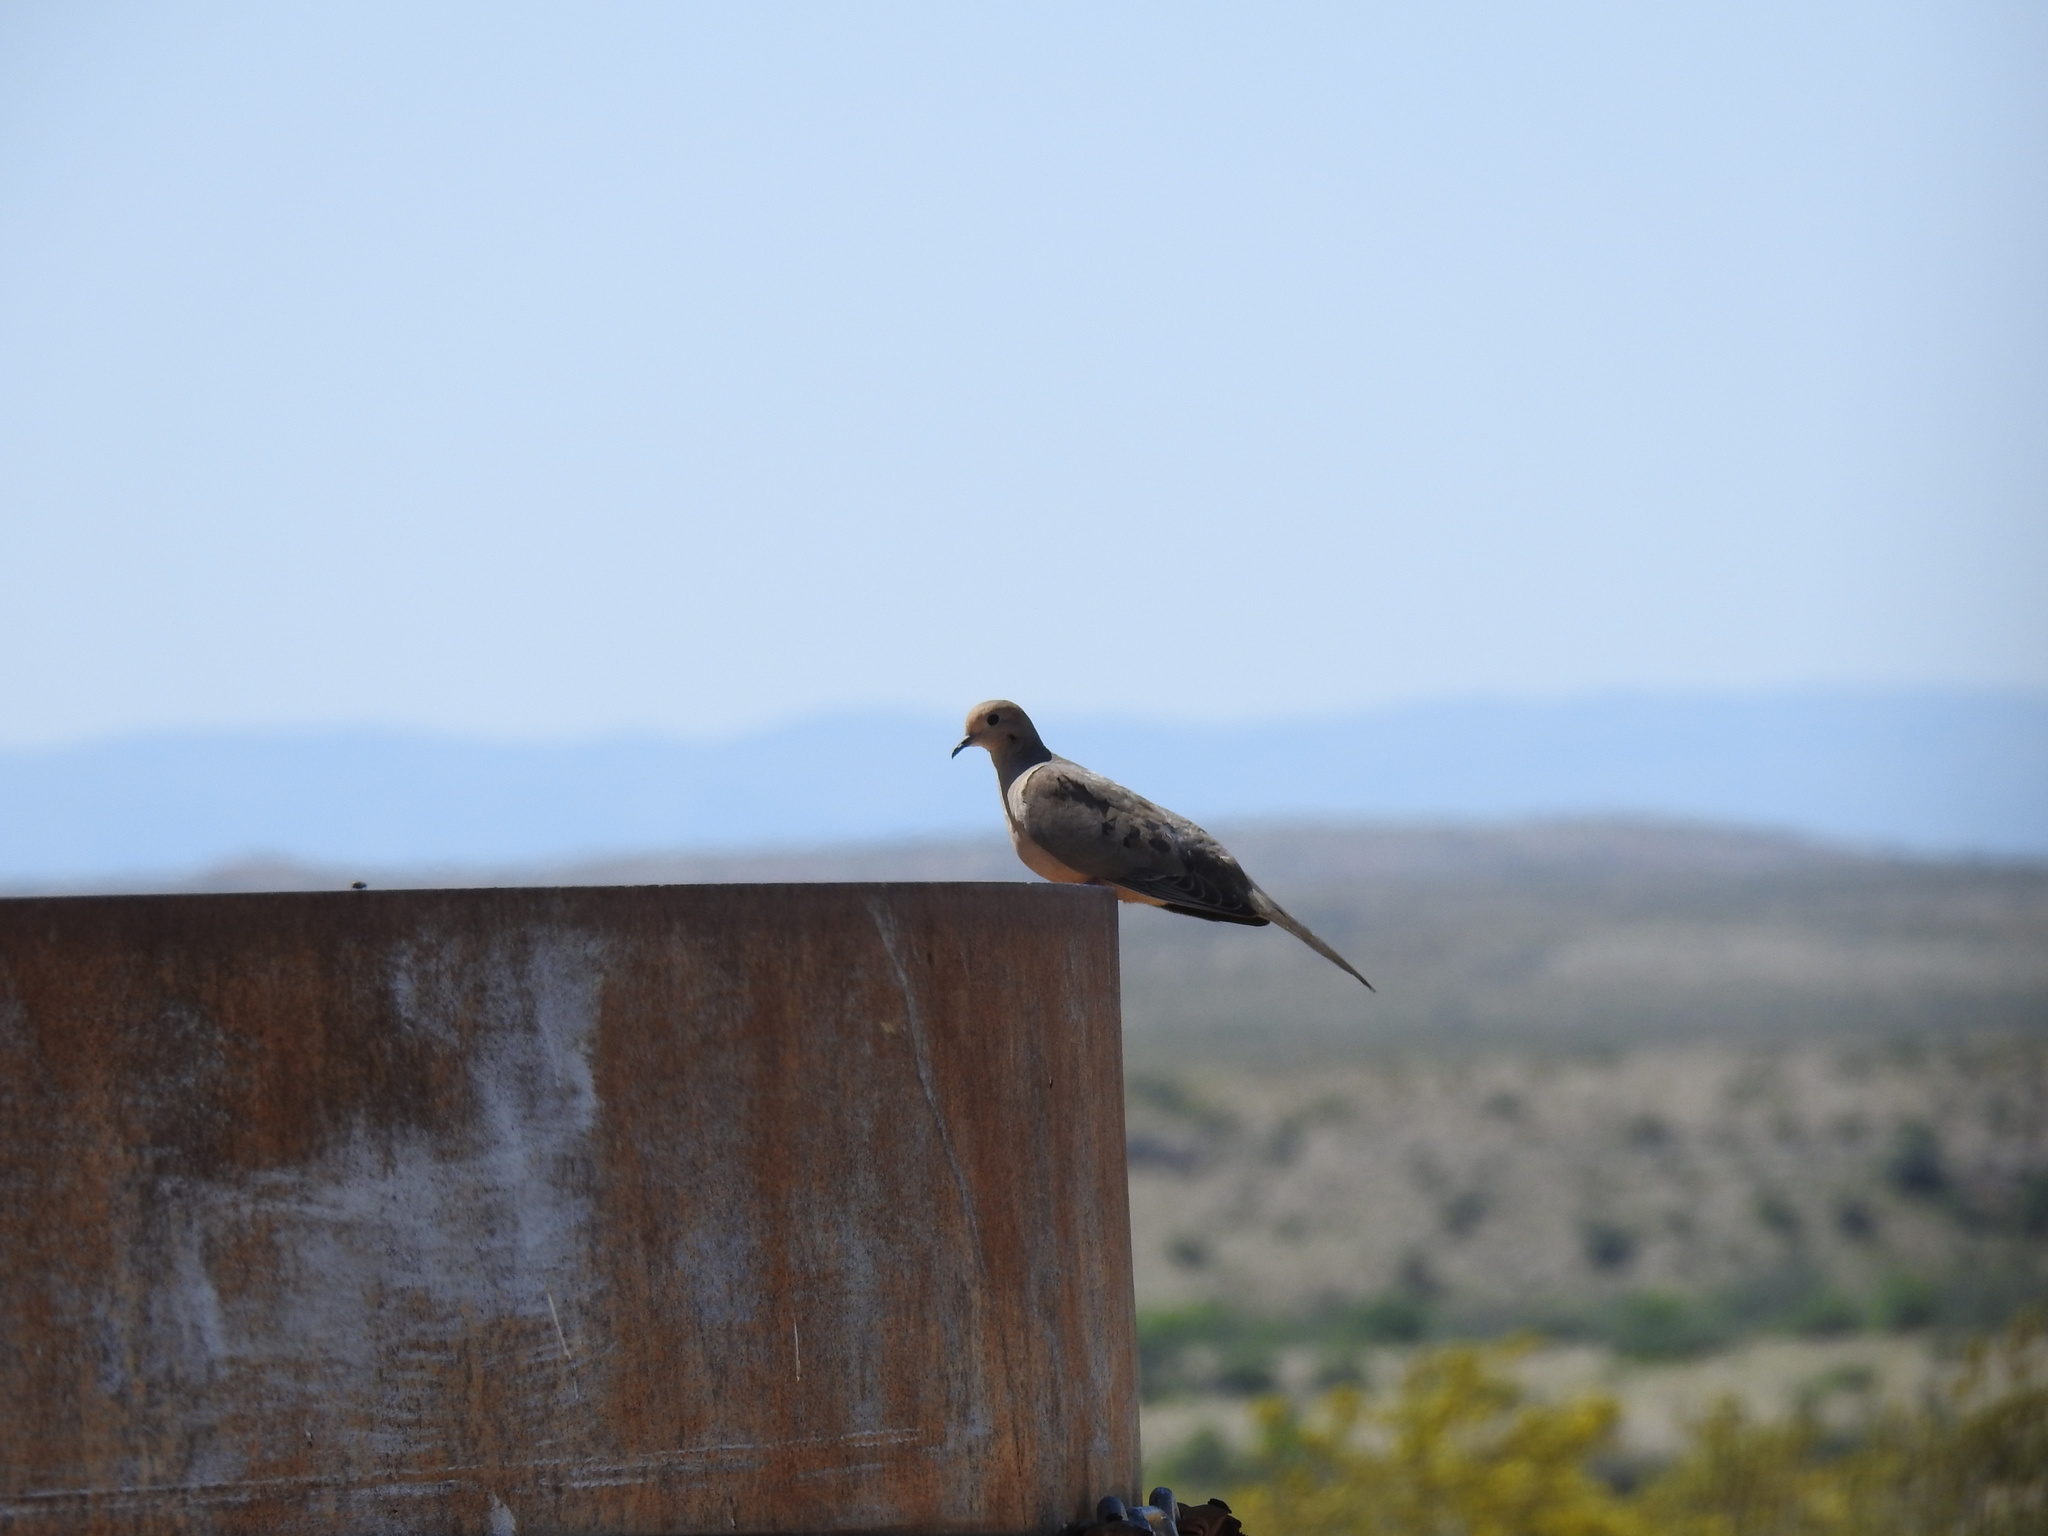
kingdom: Animalia
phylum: Chordata
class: Aves
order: Columbiformes
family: Columbidae
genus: Zenaida
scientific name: Zenaida macroura
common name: Mourning dove
